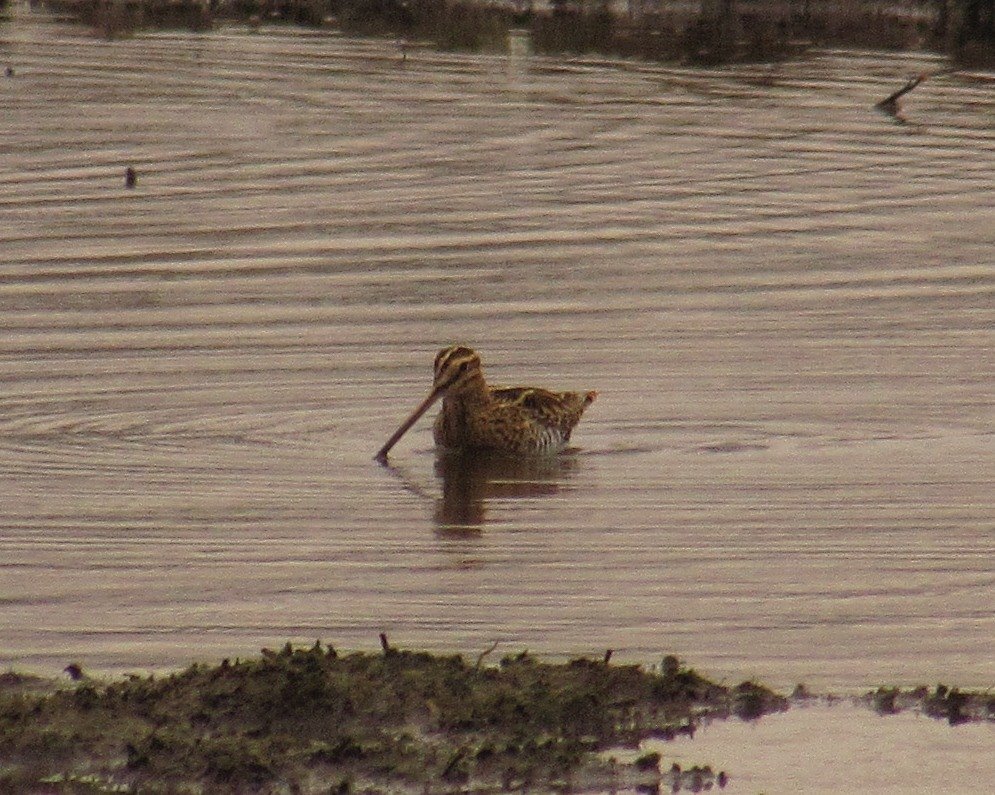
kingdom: Animalia
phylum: Chordata
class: Aves
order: Charadriiformes
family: Scolopacidae
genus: Gallinago
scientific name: Gallinago gallinago
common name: Common snipe
